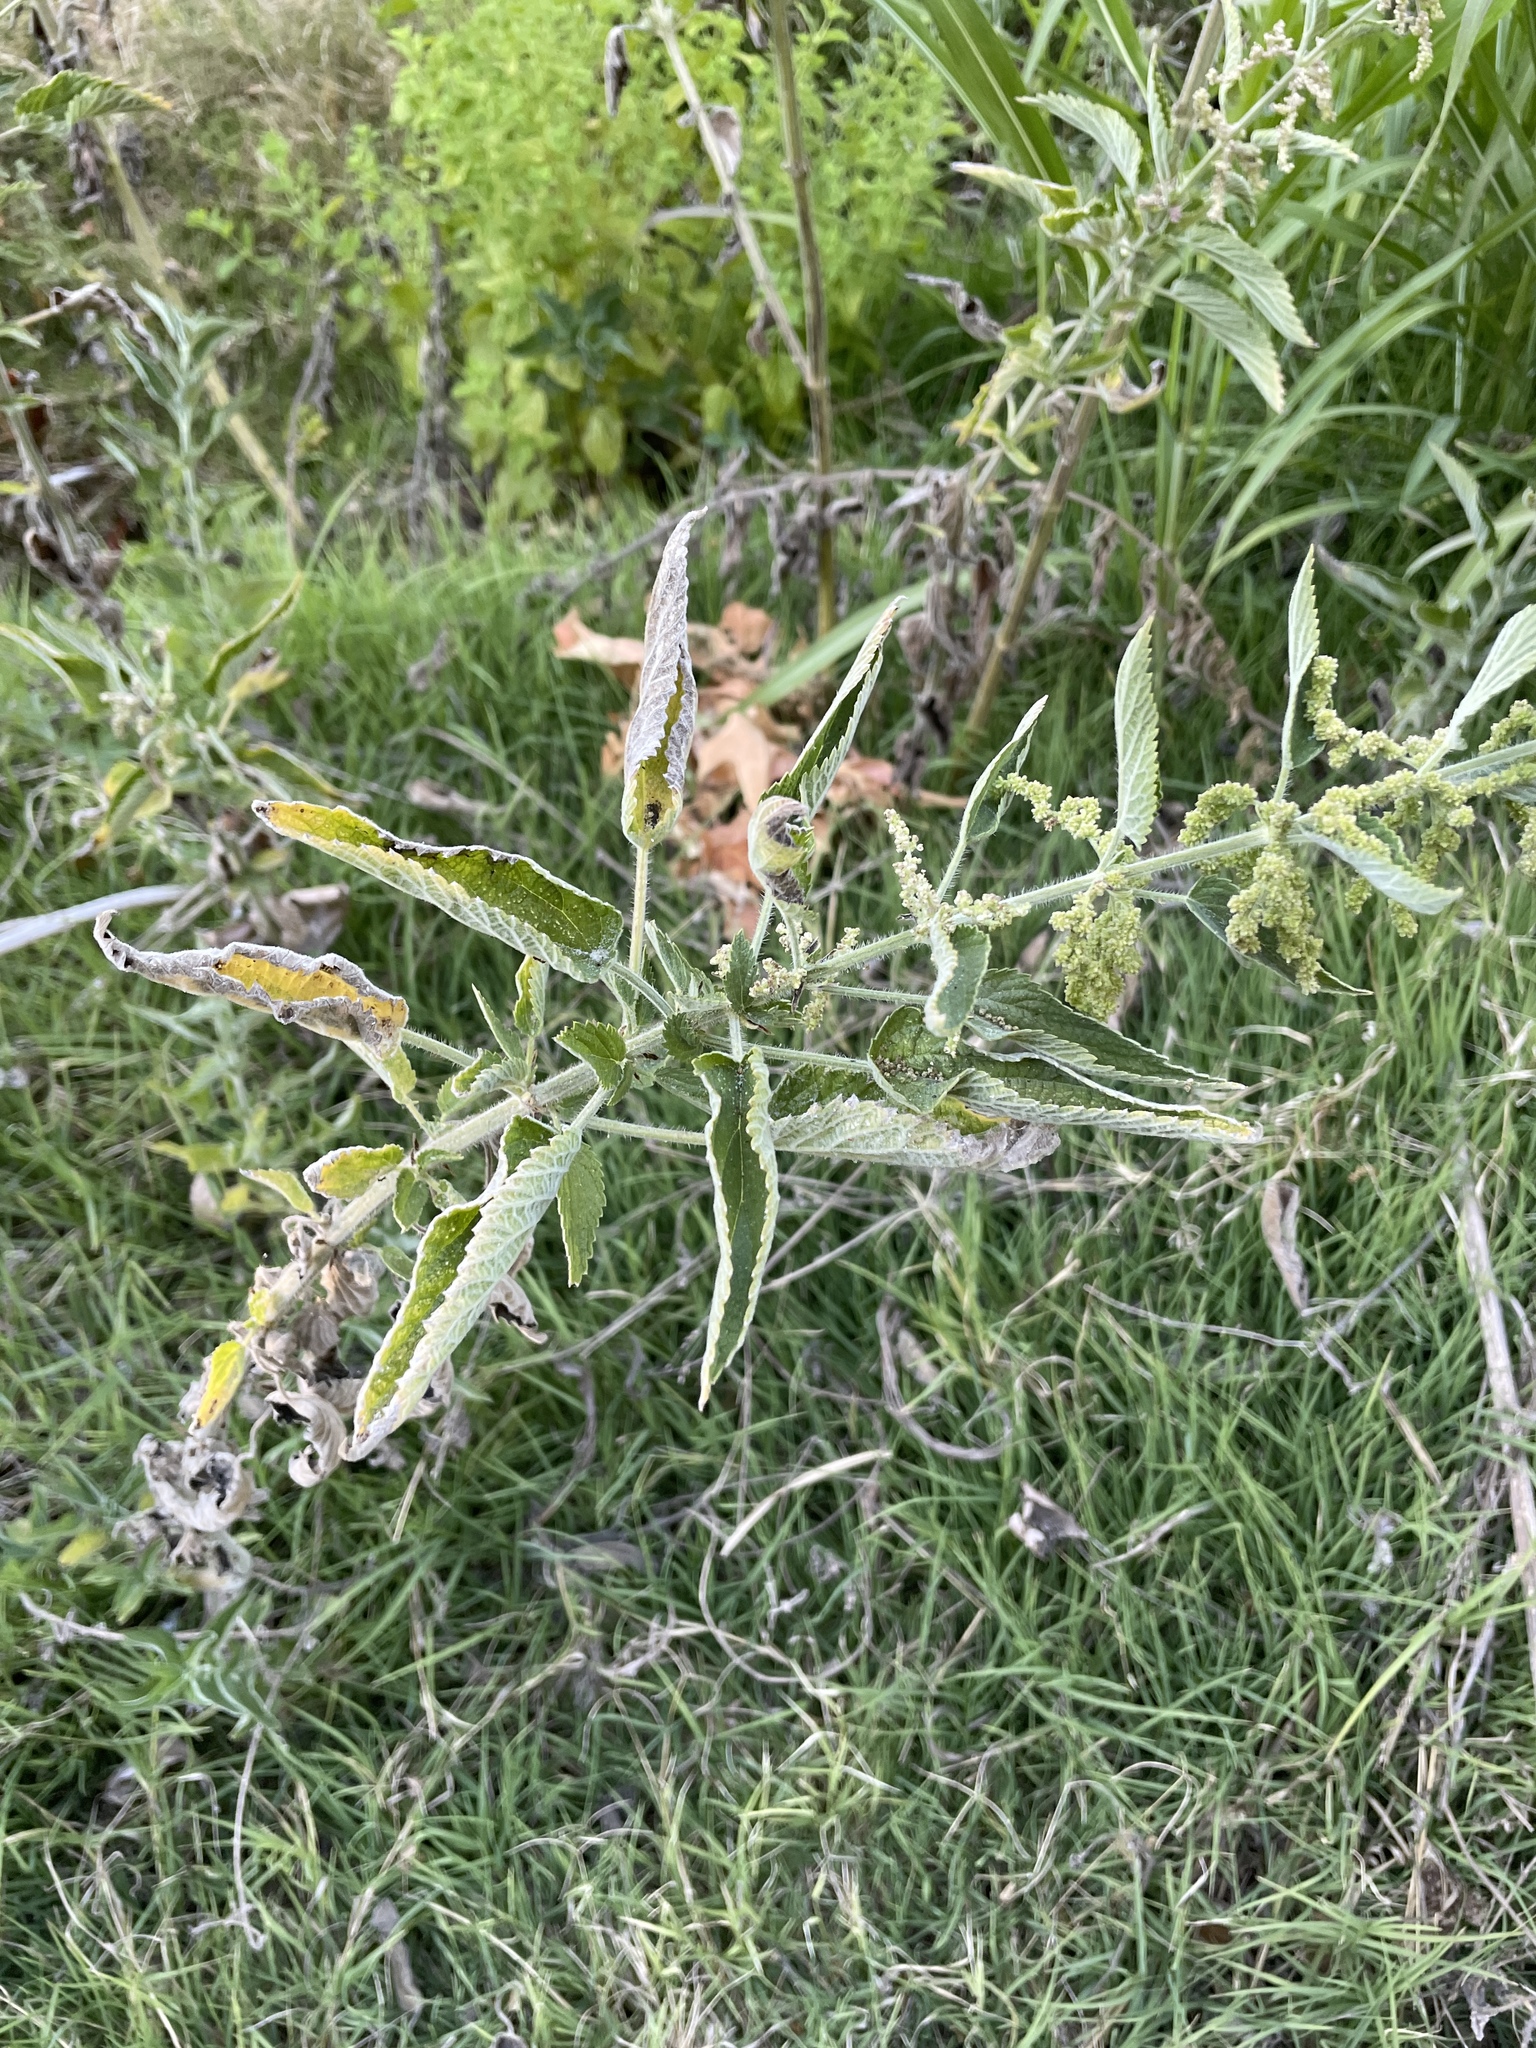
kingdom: Plantae
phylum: Tracheophyta
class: Magnoliopsida
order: Rosales
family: Urticaceae
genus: Urtica
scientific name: Urtica dioica
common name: Common nettle
